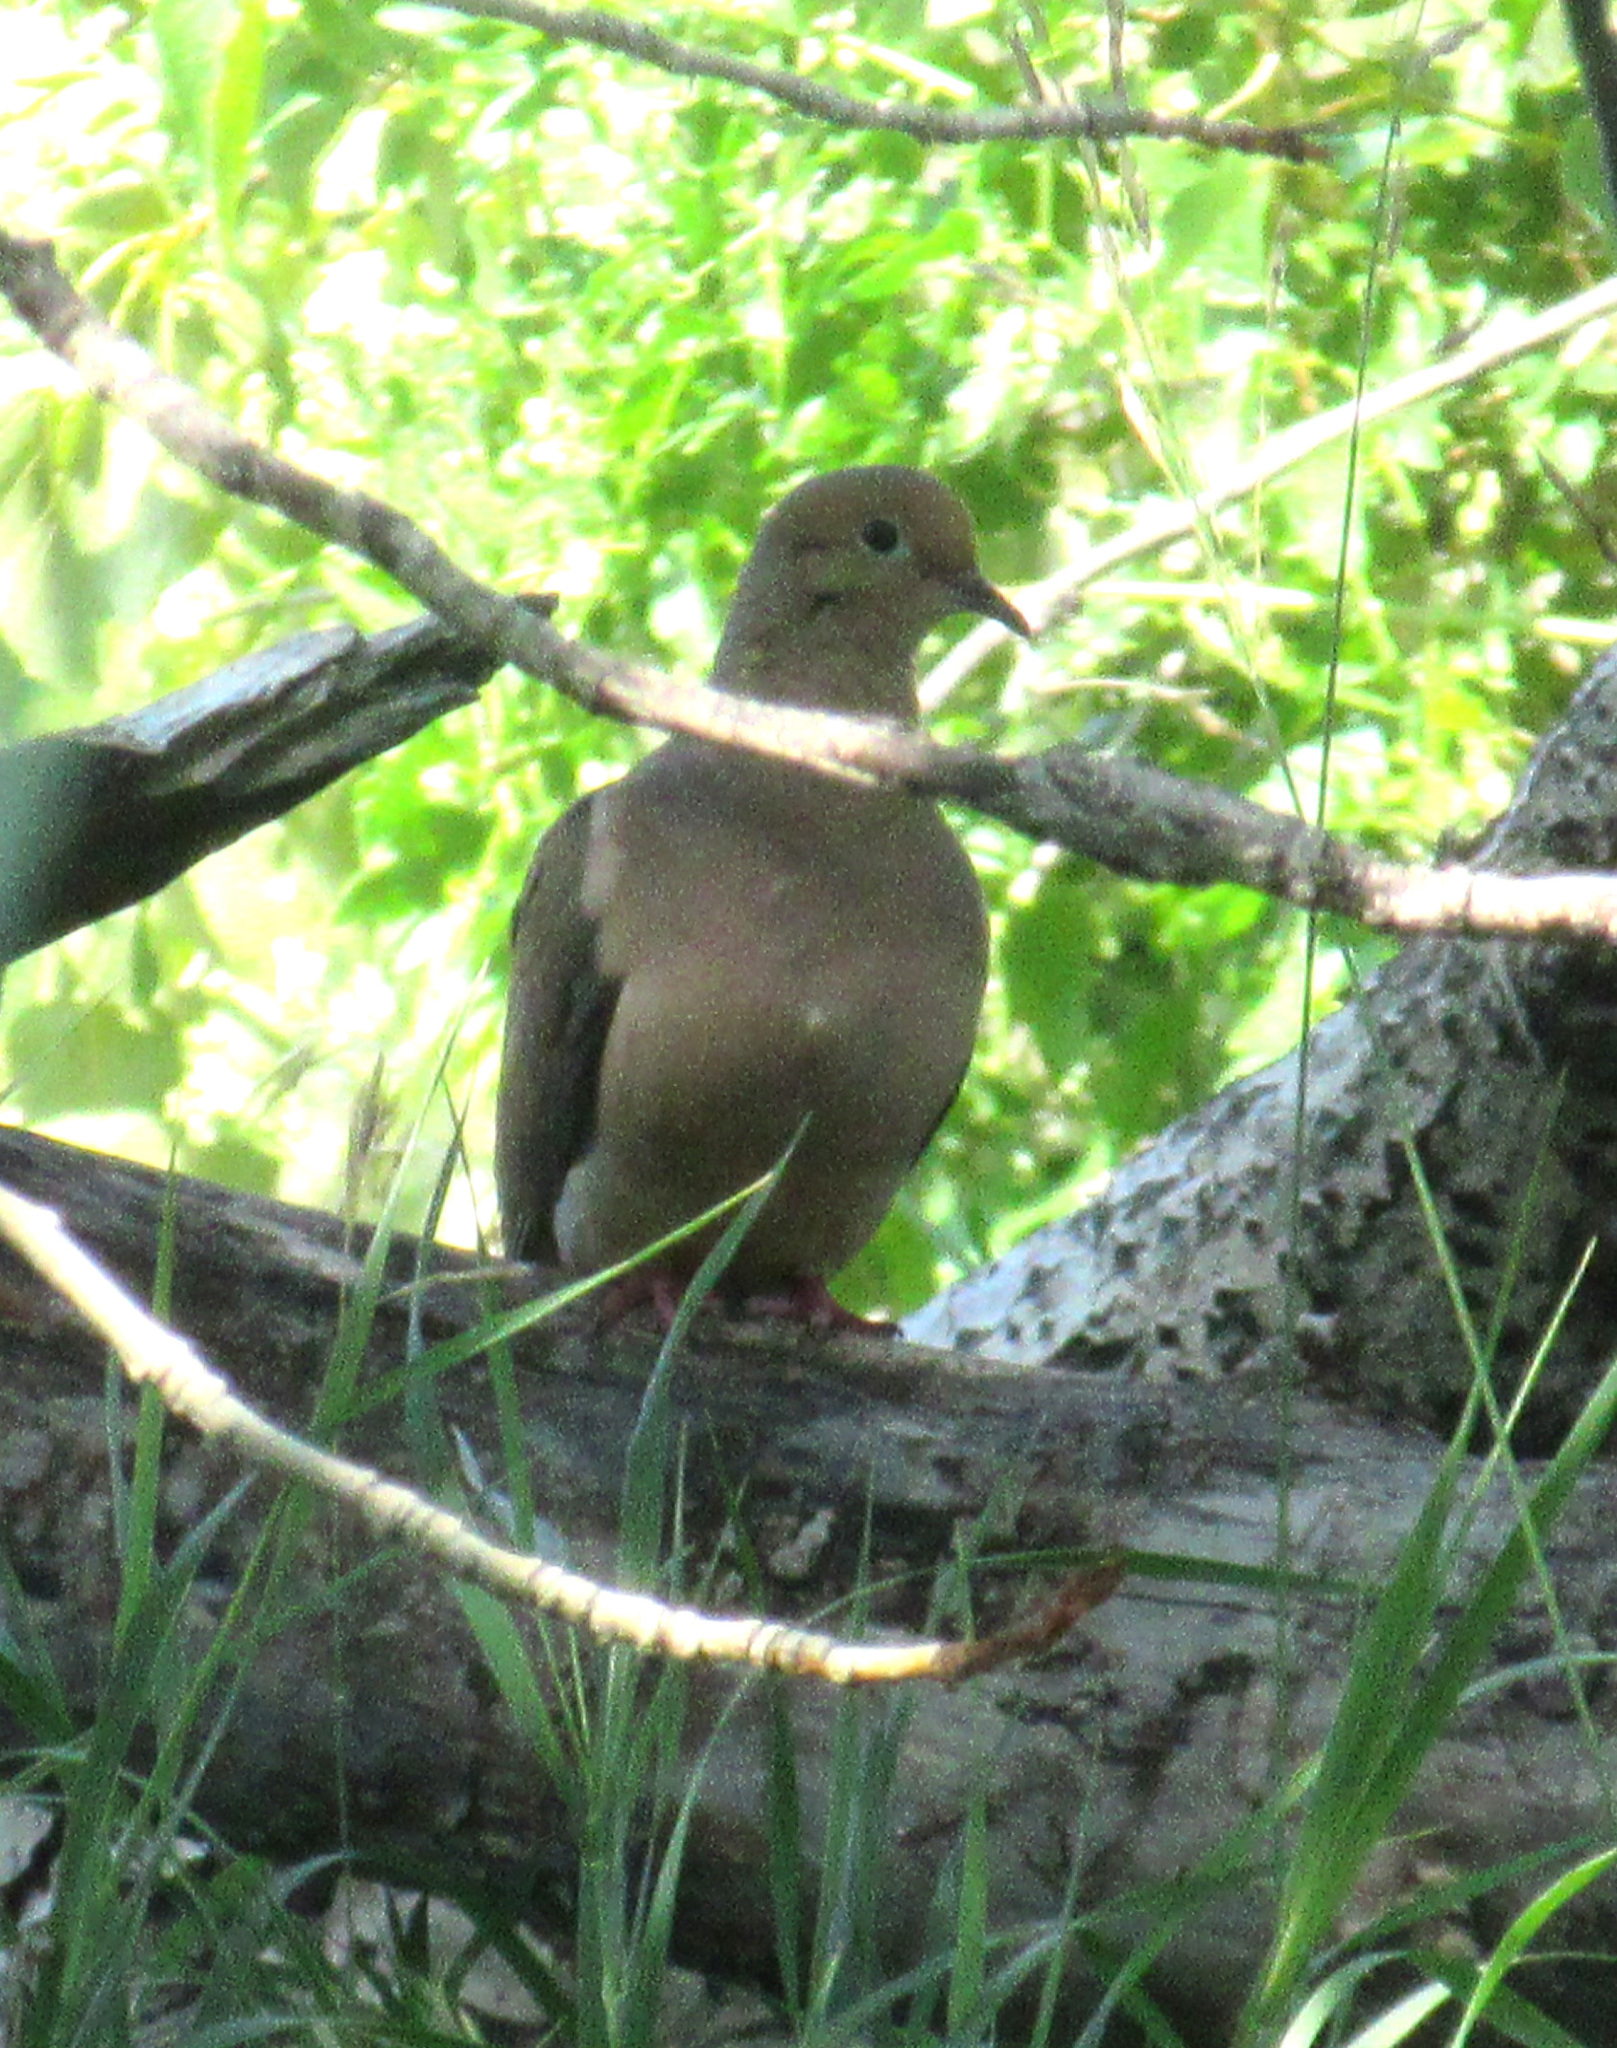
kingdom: Animalia
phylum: Chordata
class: Aves
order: Columbiformes
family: Columbidae
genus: Zenaida
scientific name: Zenaida macroura
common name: Mourning dove
